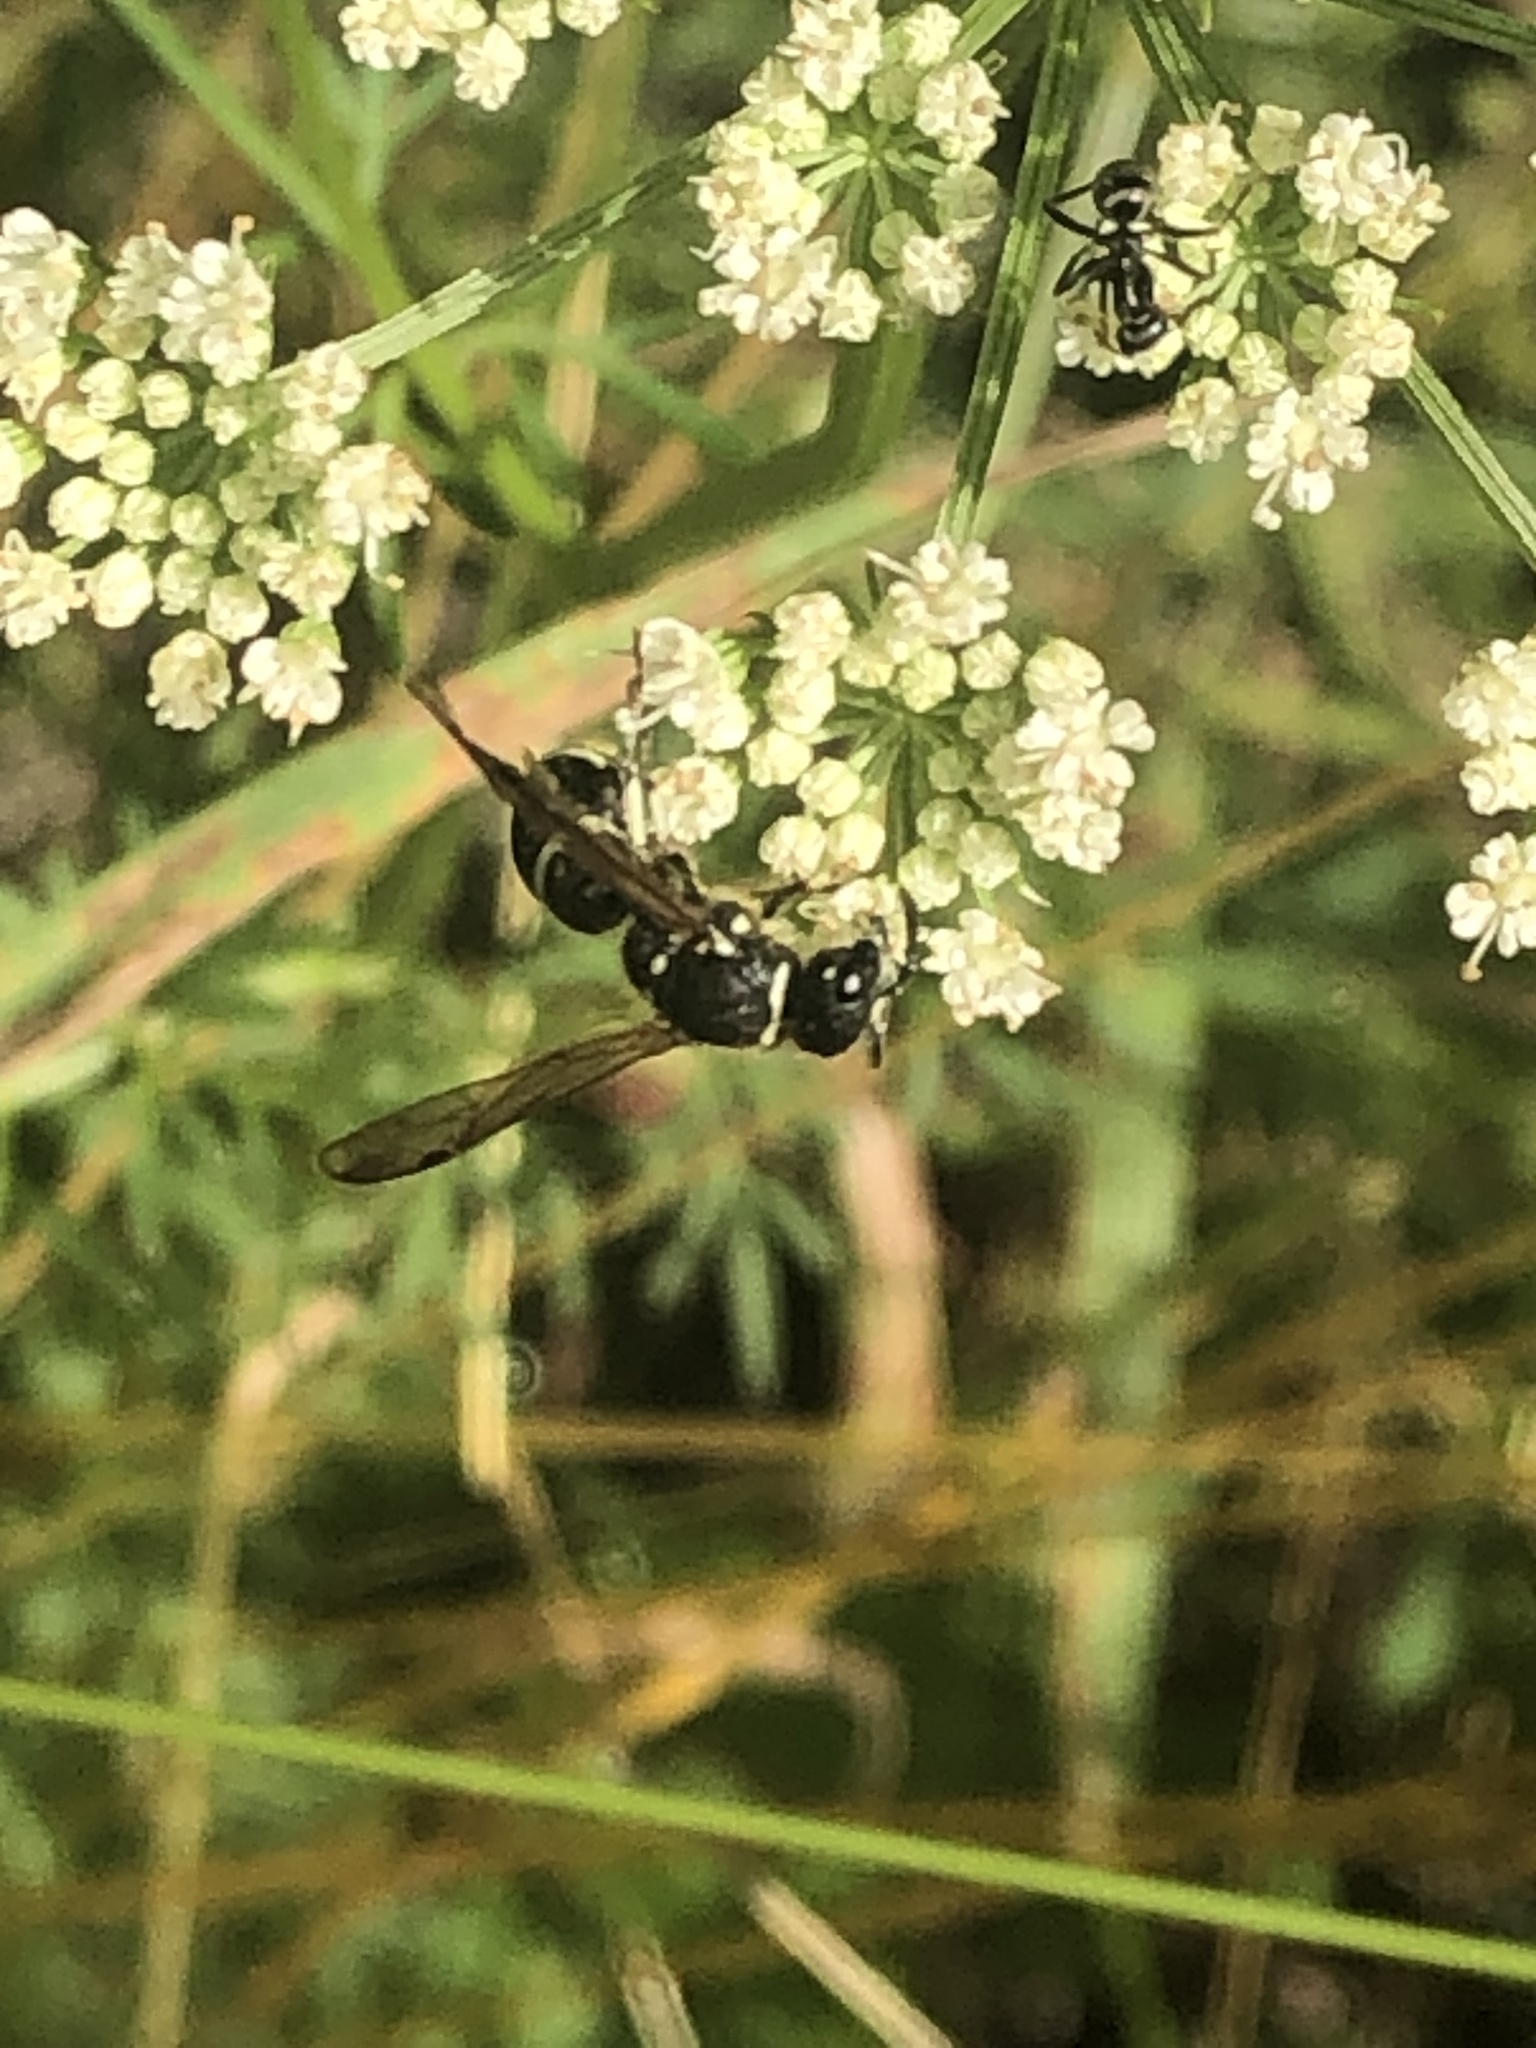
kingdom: Animalia
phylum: Arthropoda
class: Insecta
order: Hymenoptera
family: Vespidae
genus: Ancistrocerus
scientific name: Ancistrocerus albophaleratus
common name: White-banded potter wasp
